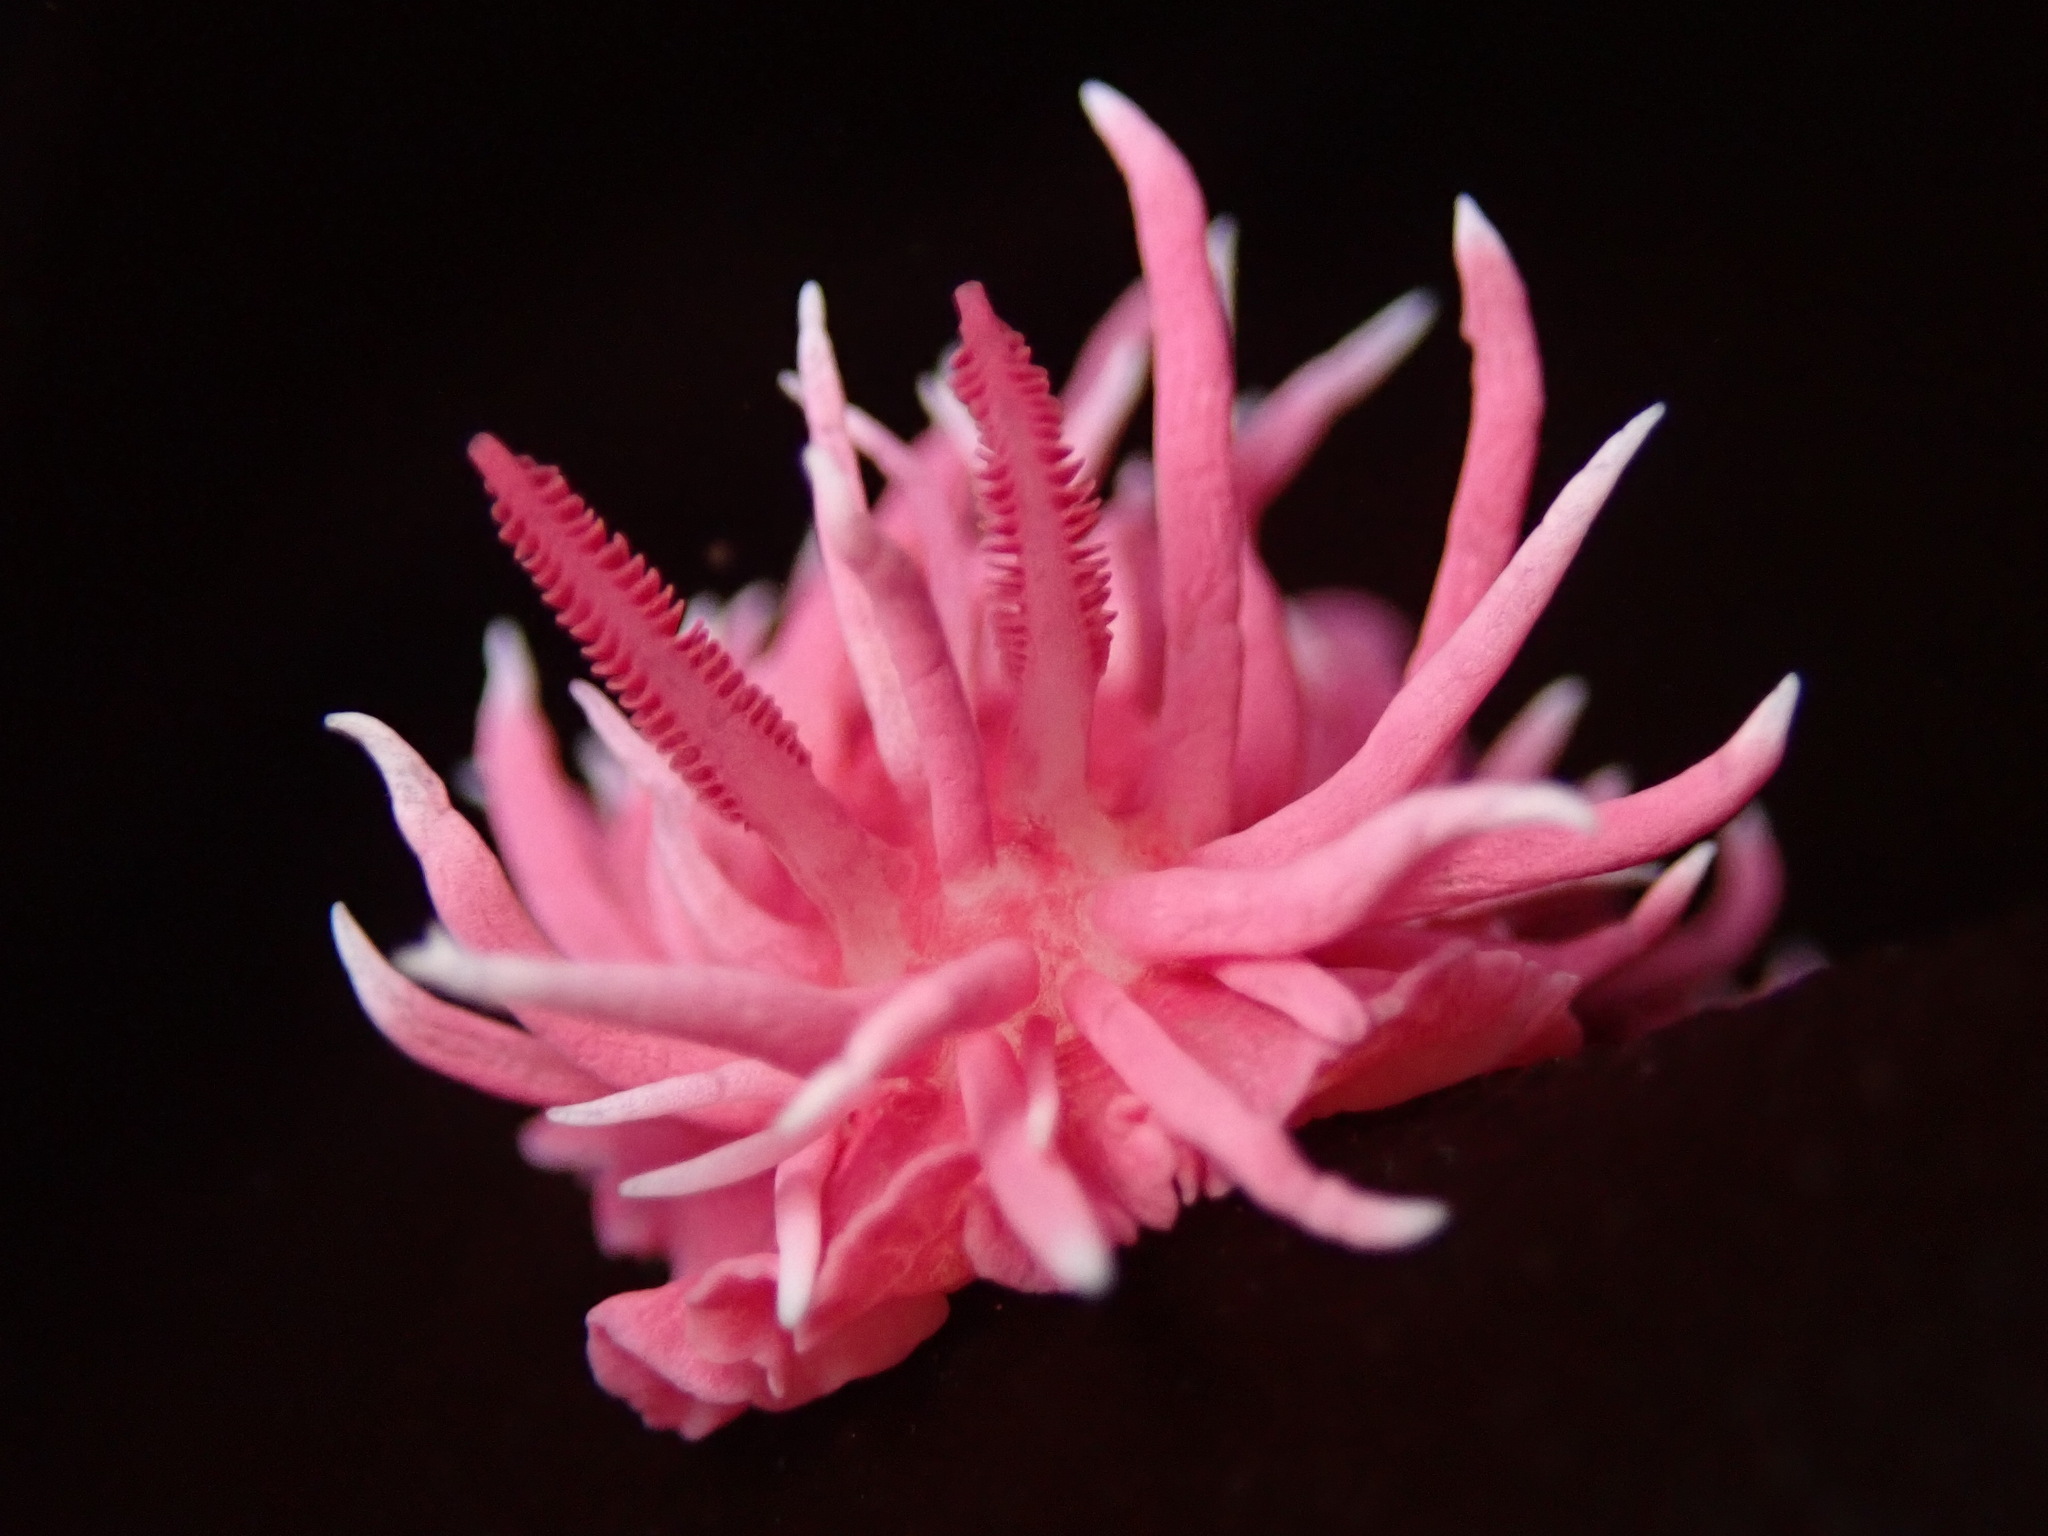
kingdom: Animalia
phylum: Mollusca
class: Gastropoda
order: Nudibranchia
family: Goniodorididae
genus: Okenia
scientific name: Okenia
